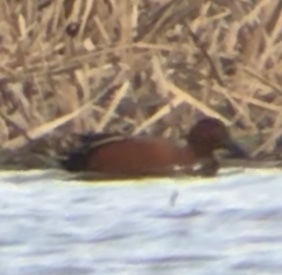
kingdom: Animalia
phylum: Chordata
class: Aves
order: Anseriformes
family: Anatidae
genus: Spatula
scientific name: Spatula cyanoptera
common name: Cinnamon teal
